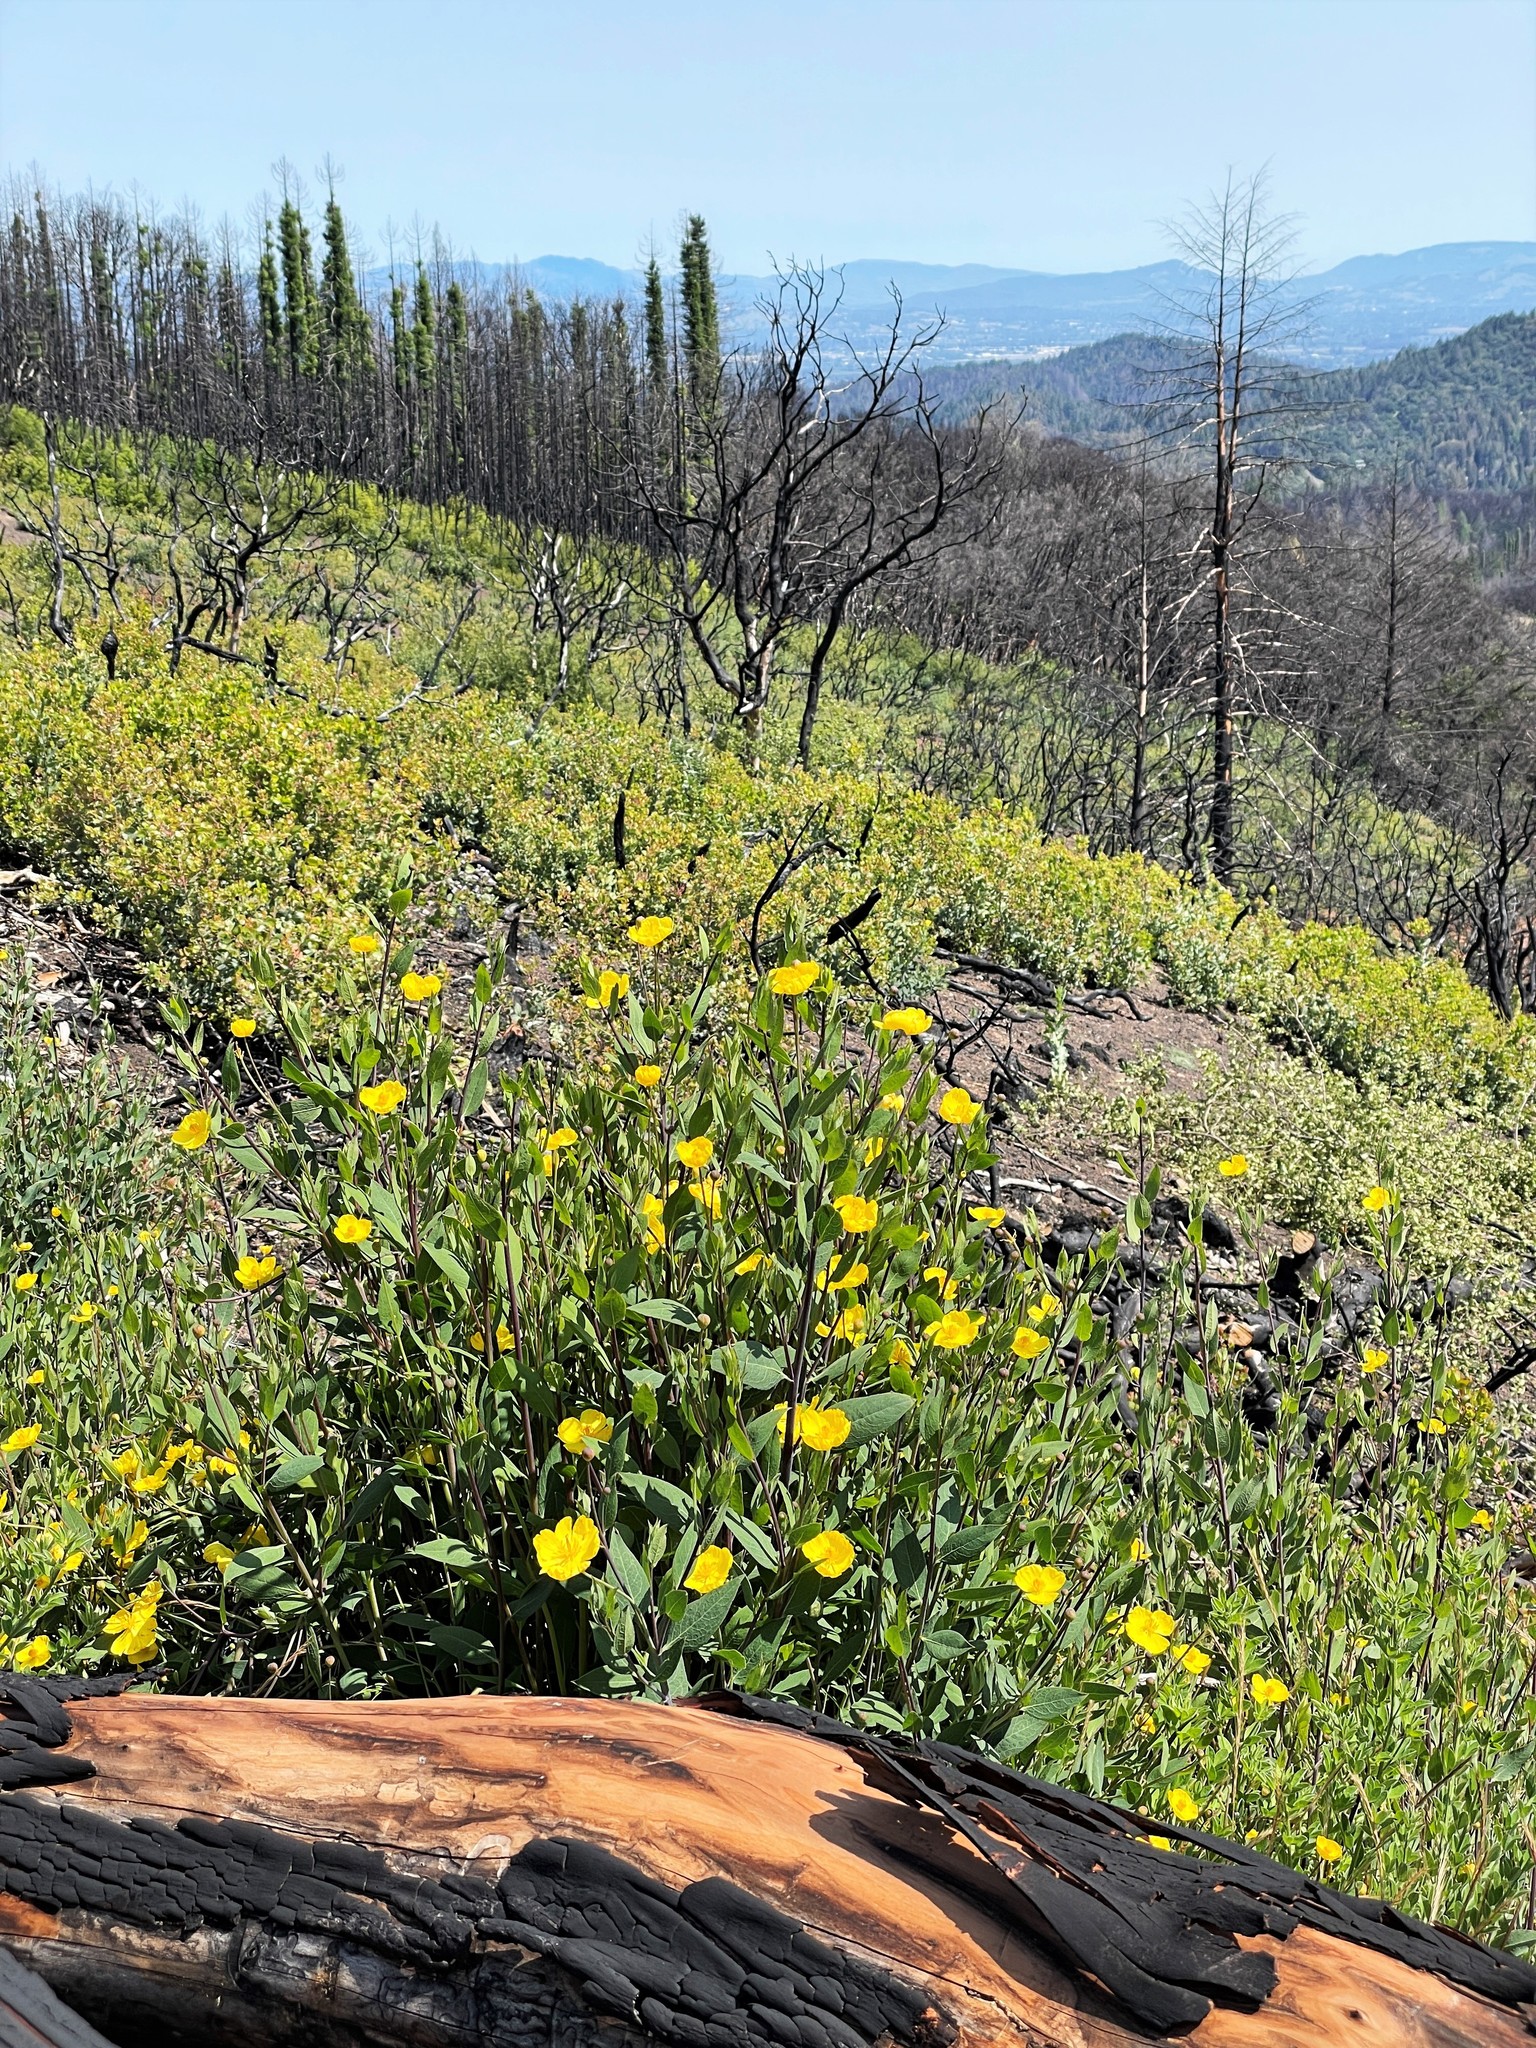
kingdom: Plantae
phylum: Tracheophyta
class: Magnoliopsida
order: Ranunculales
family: Papaveraceae
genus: Dendromecon
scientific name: Dendromecon rigida
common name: Tree poppy
